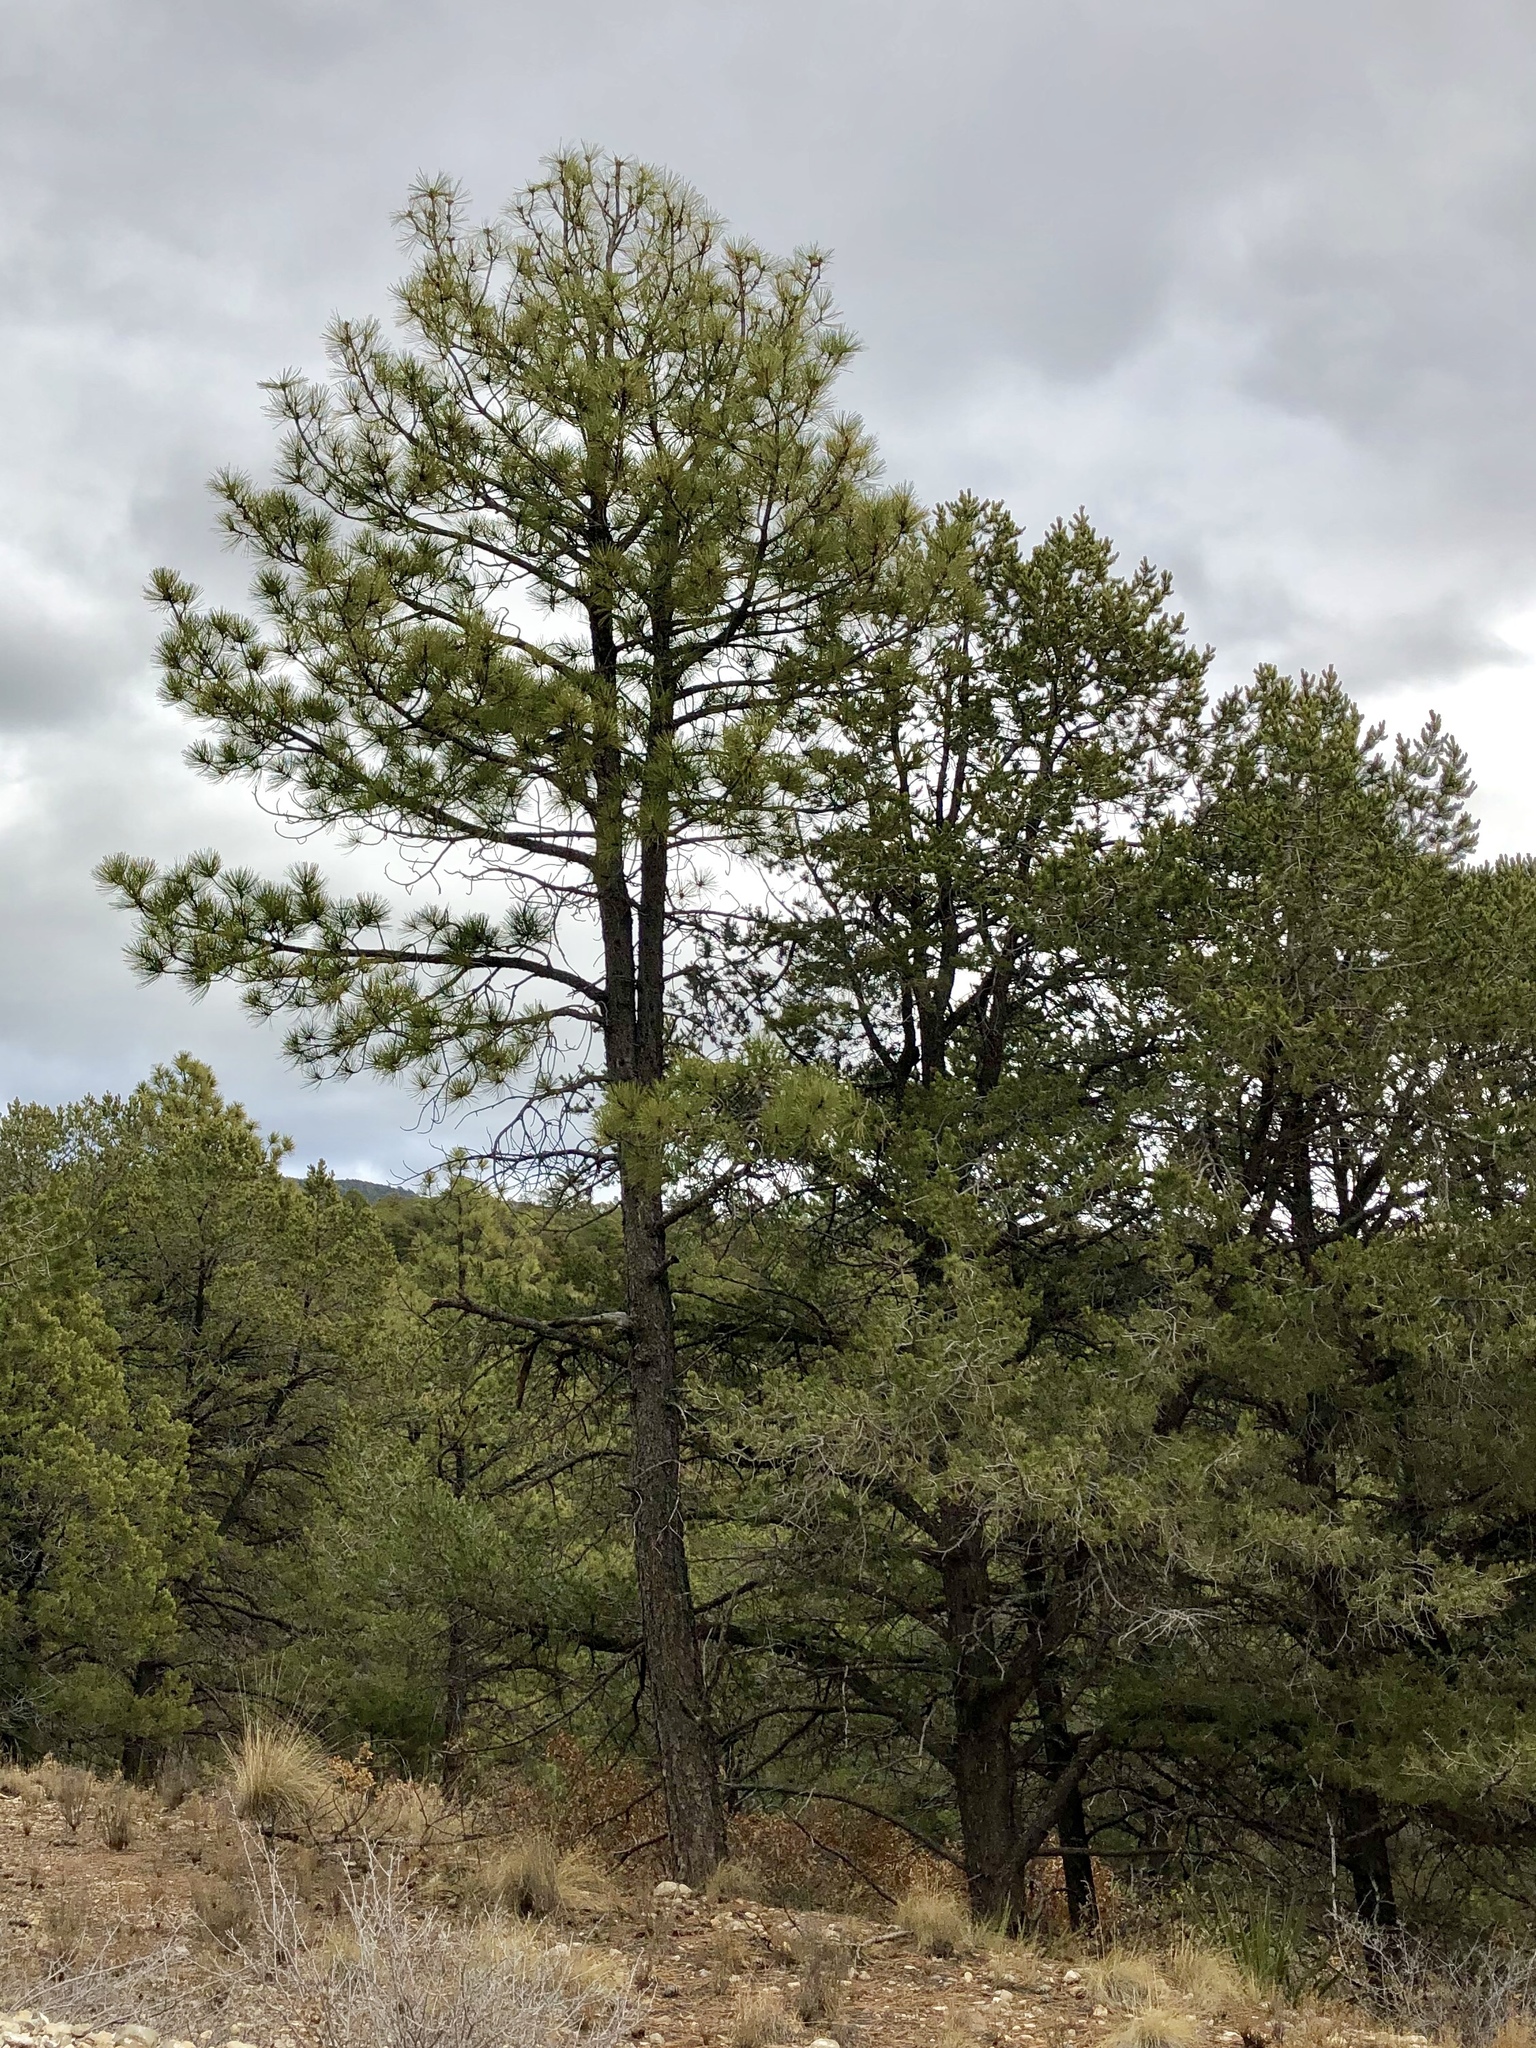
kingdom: Plantae
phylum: Tracheophyta
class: Pinopsida
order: Pinales
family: Pinaceae
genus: Pinus
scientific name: Pinus ponderosa
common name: Western yellow-pine
